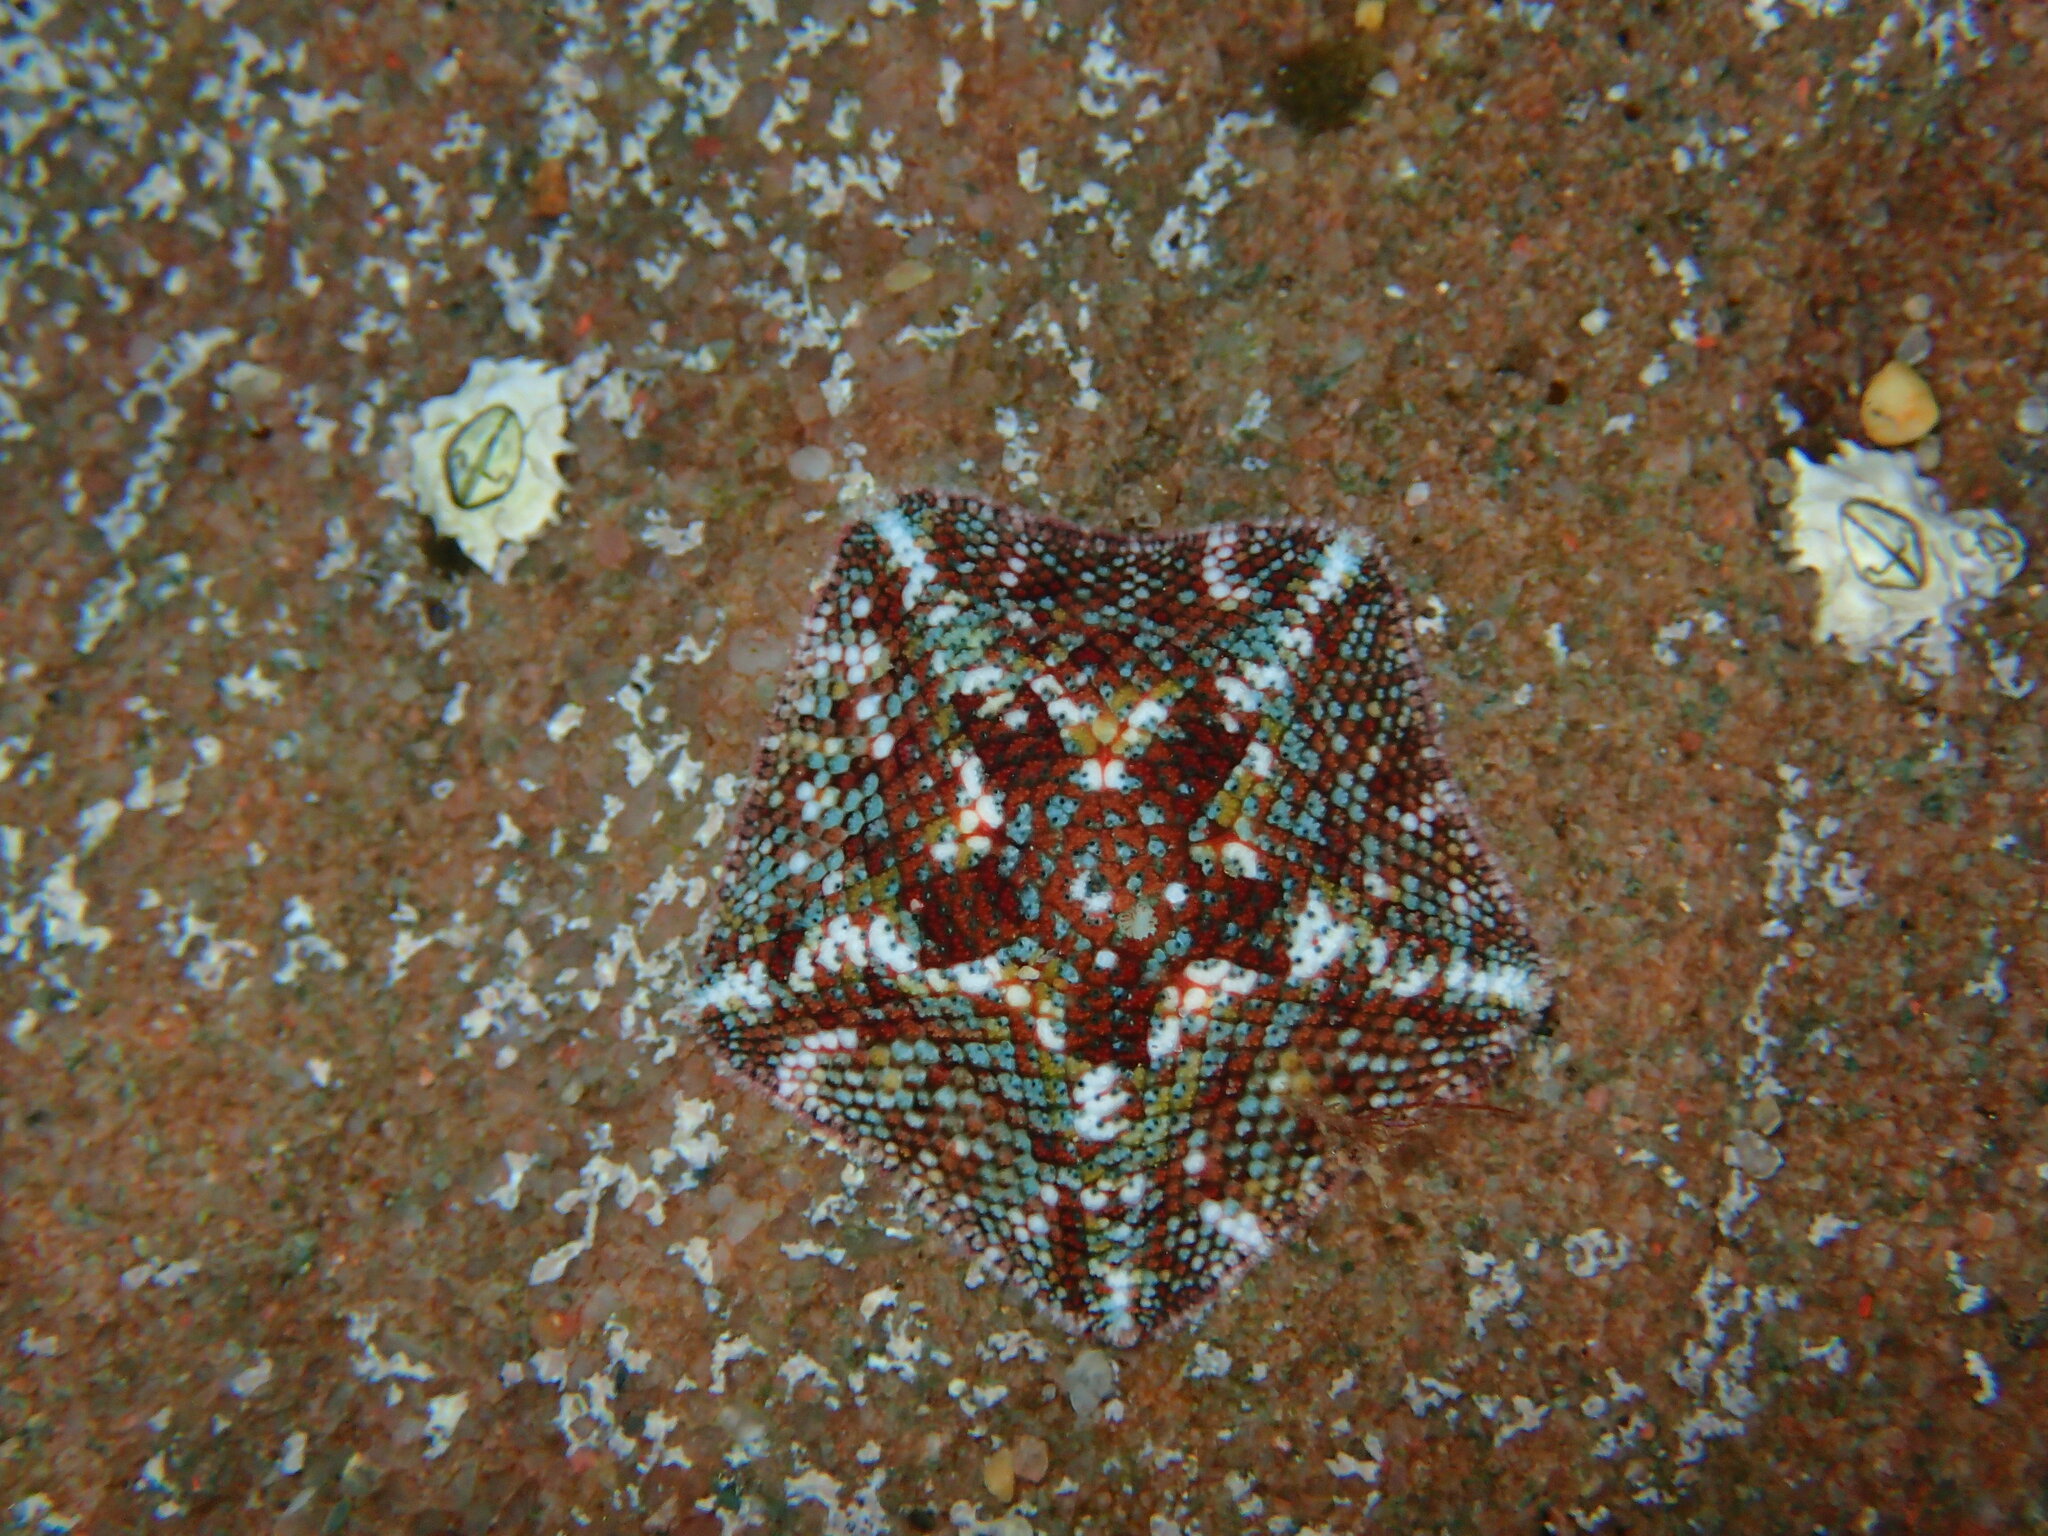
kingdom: Animalia
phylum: Echinodermata
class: Asteroidea
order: Valvatida
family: Asterinidae
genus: Parvulastra
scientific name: Parvulastra exigua
